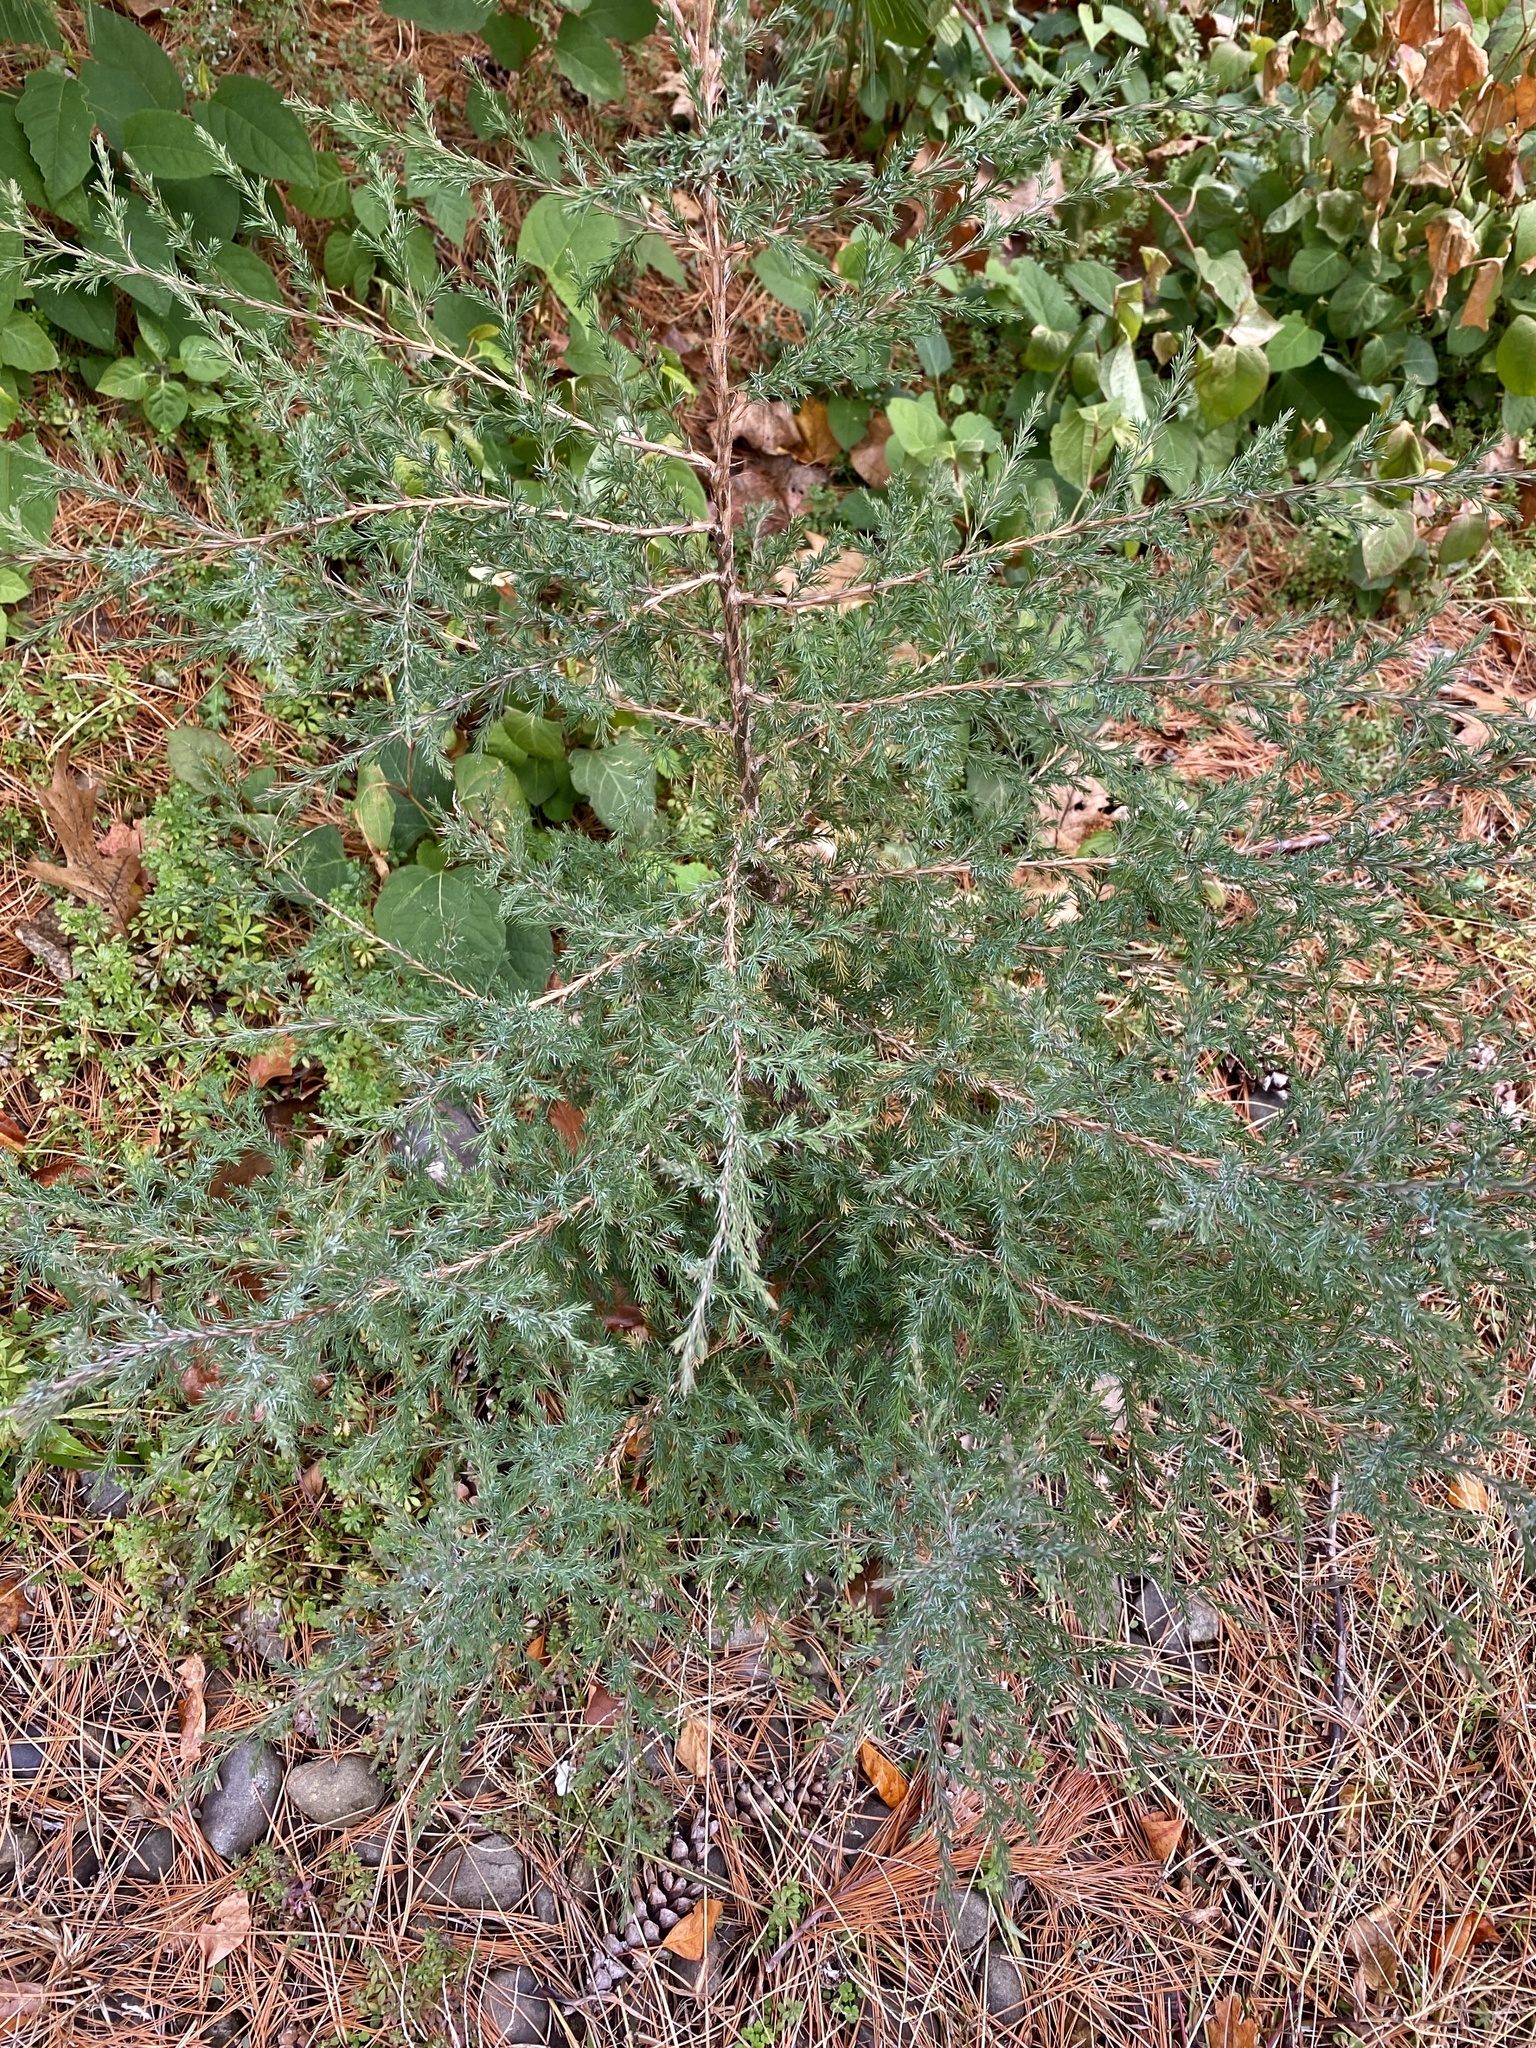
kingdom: Plantae
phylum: Tracheophyta
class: Pinopsida
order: Pinales
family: Cupressaceae
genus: Juniperus
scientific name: Juniperus virginiana
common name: Red juniper
